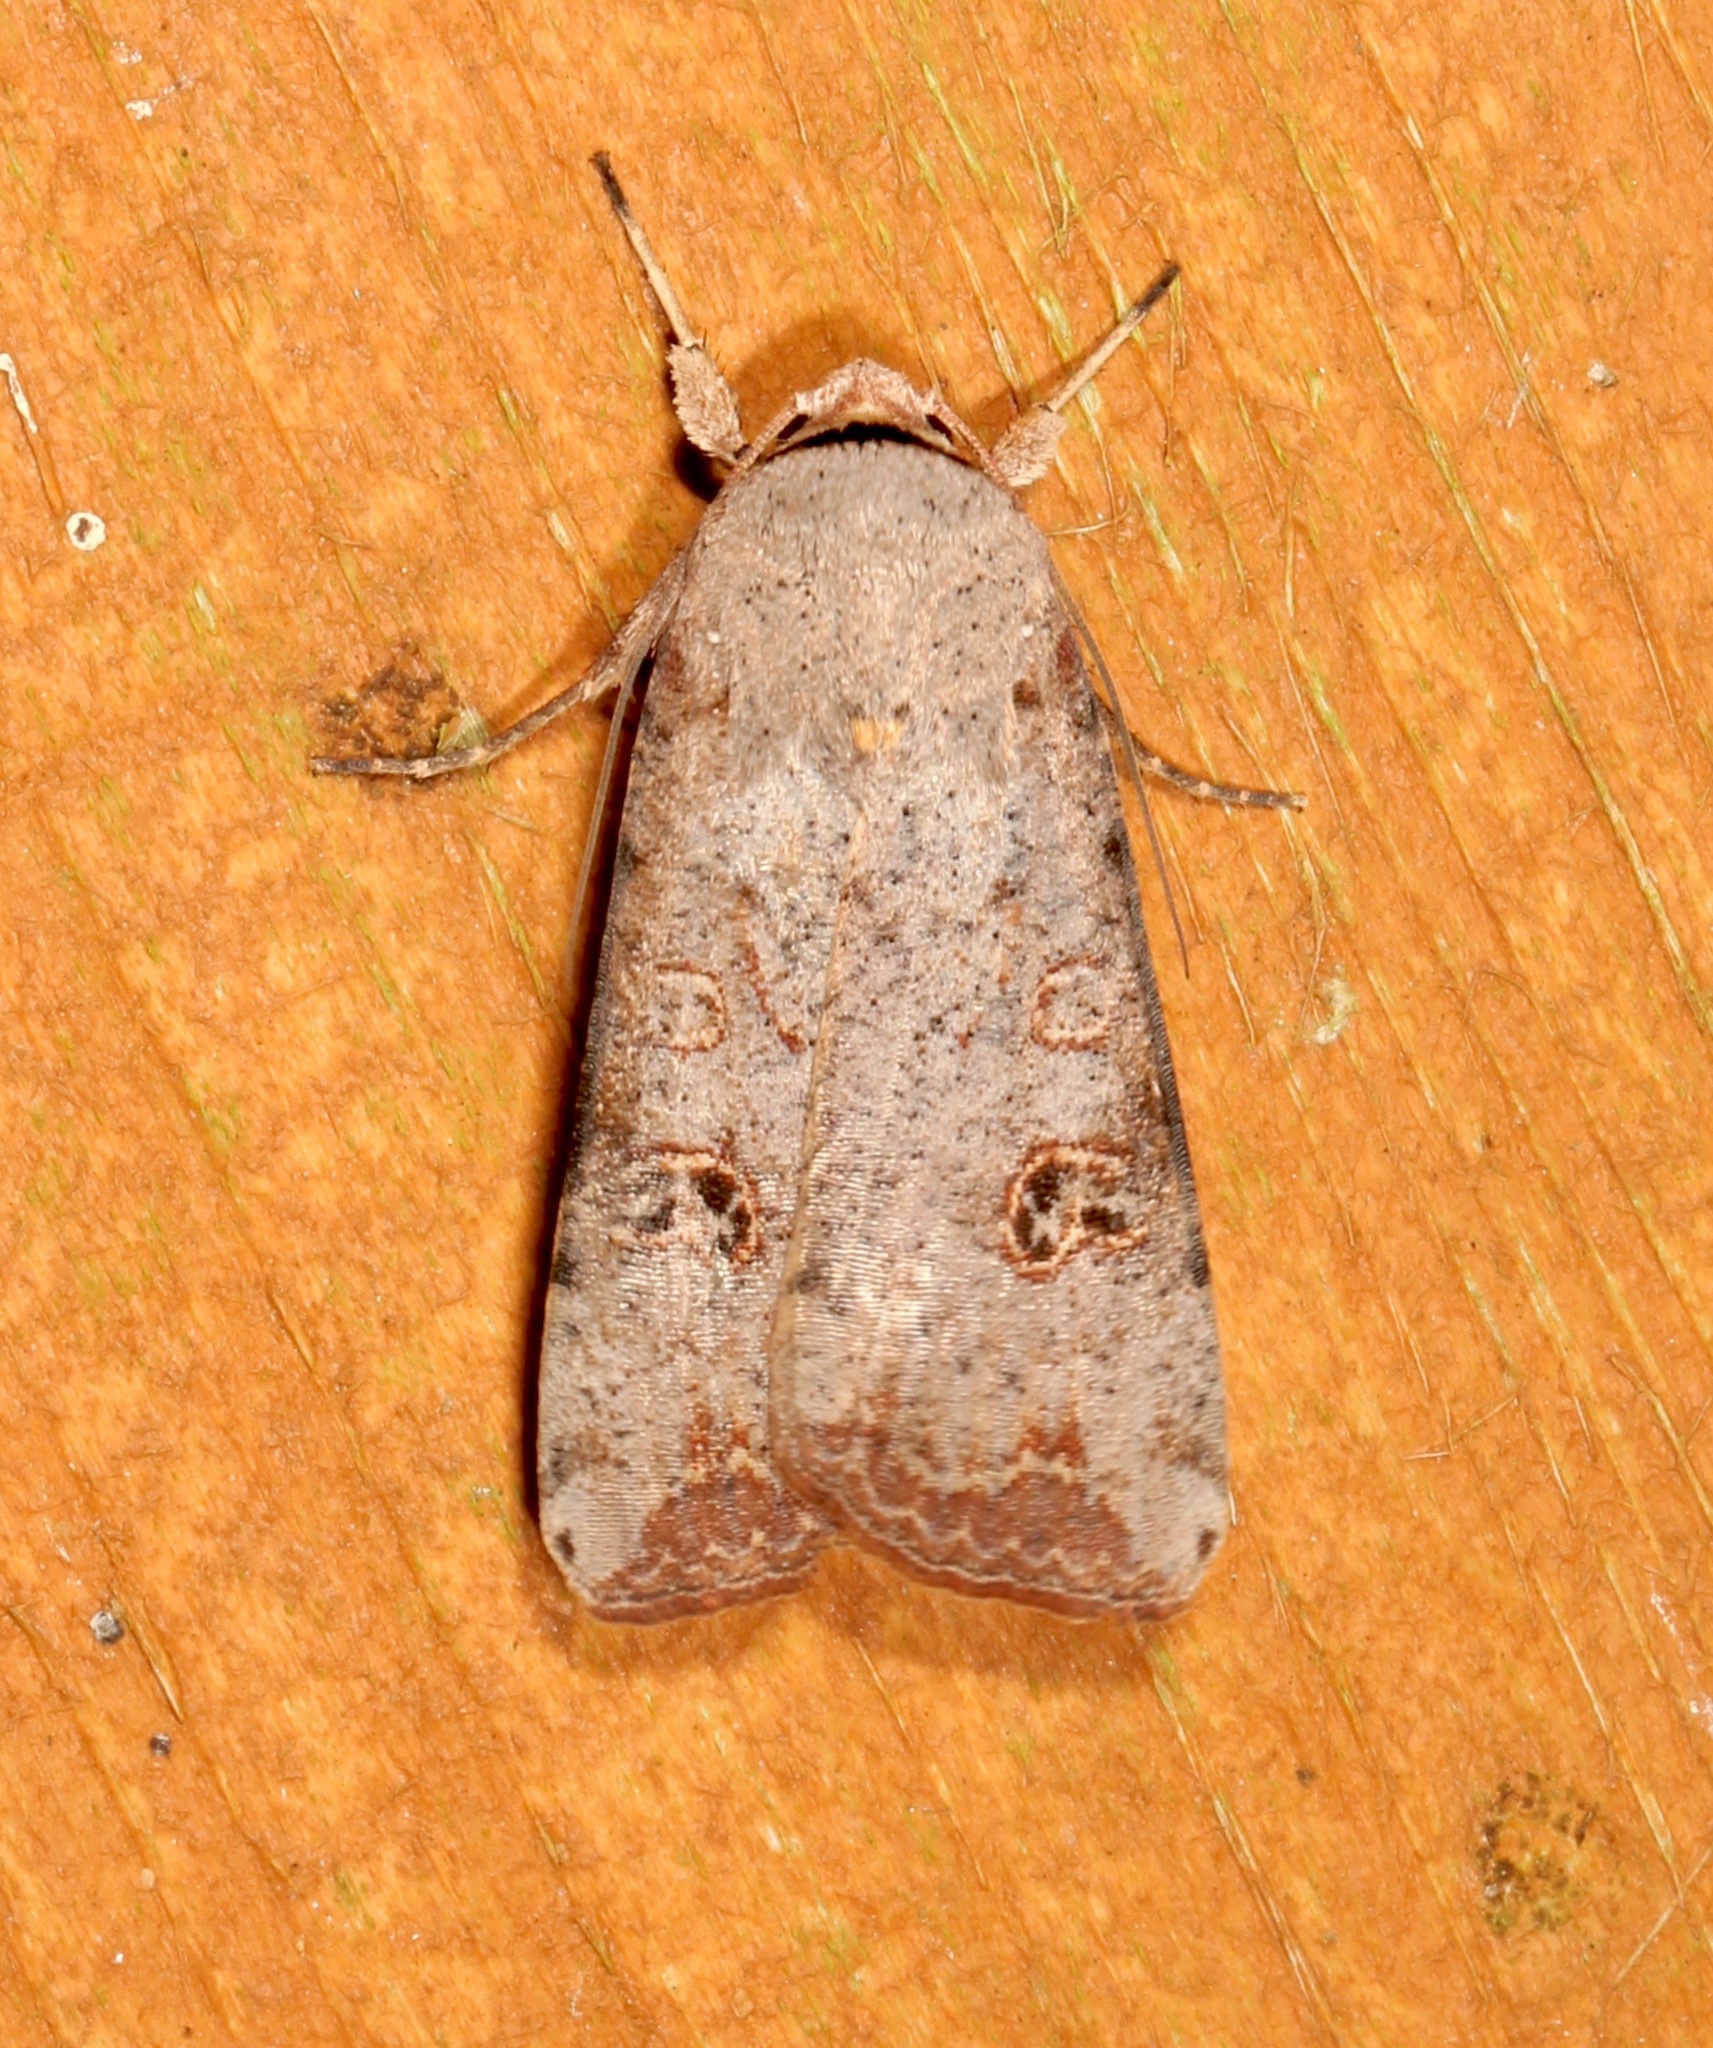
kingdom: Animalia
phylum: Arthropoda
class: Insecta
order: Lepidoptera
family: Noctuidae
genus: Anicla
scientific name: Anicla infecta
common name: Green cutworm
